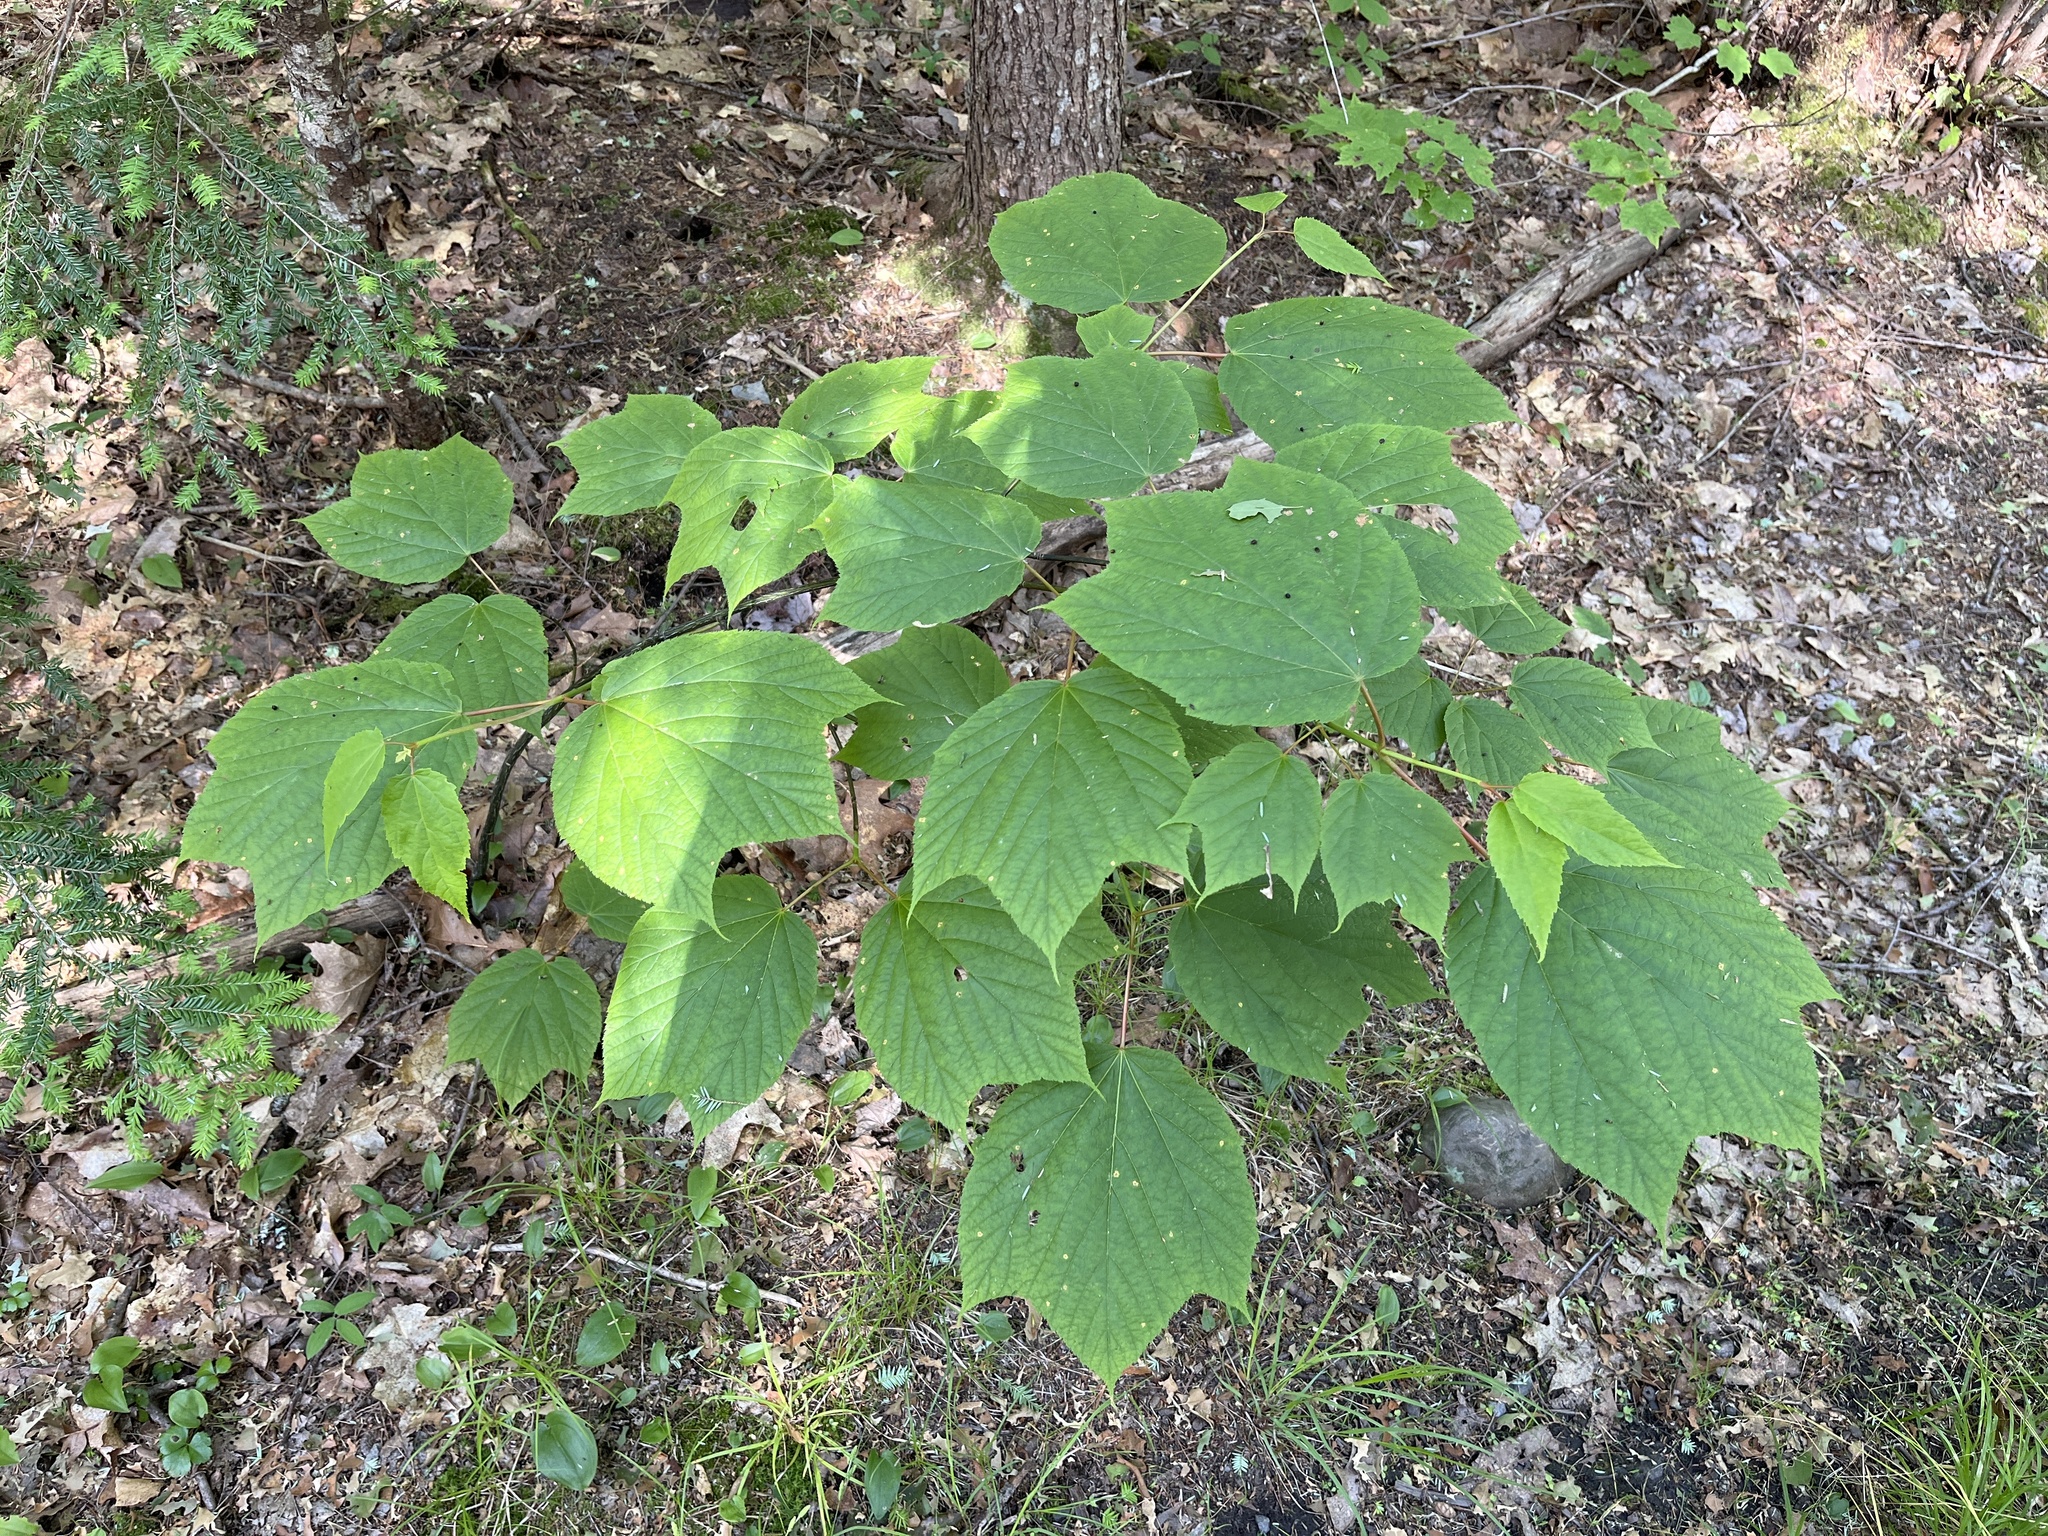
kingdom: Plantae
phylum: Tracheophyta
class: Magnoliopsida
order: Sapindales
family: Sapindaceae
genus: Acer
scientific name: Acer pensylvanicum
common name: Moosewood
